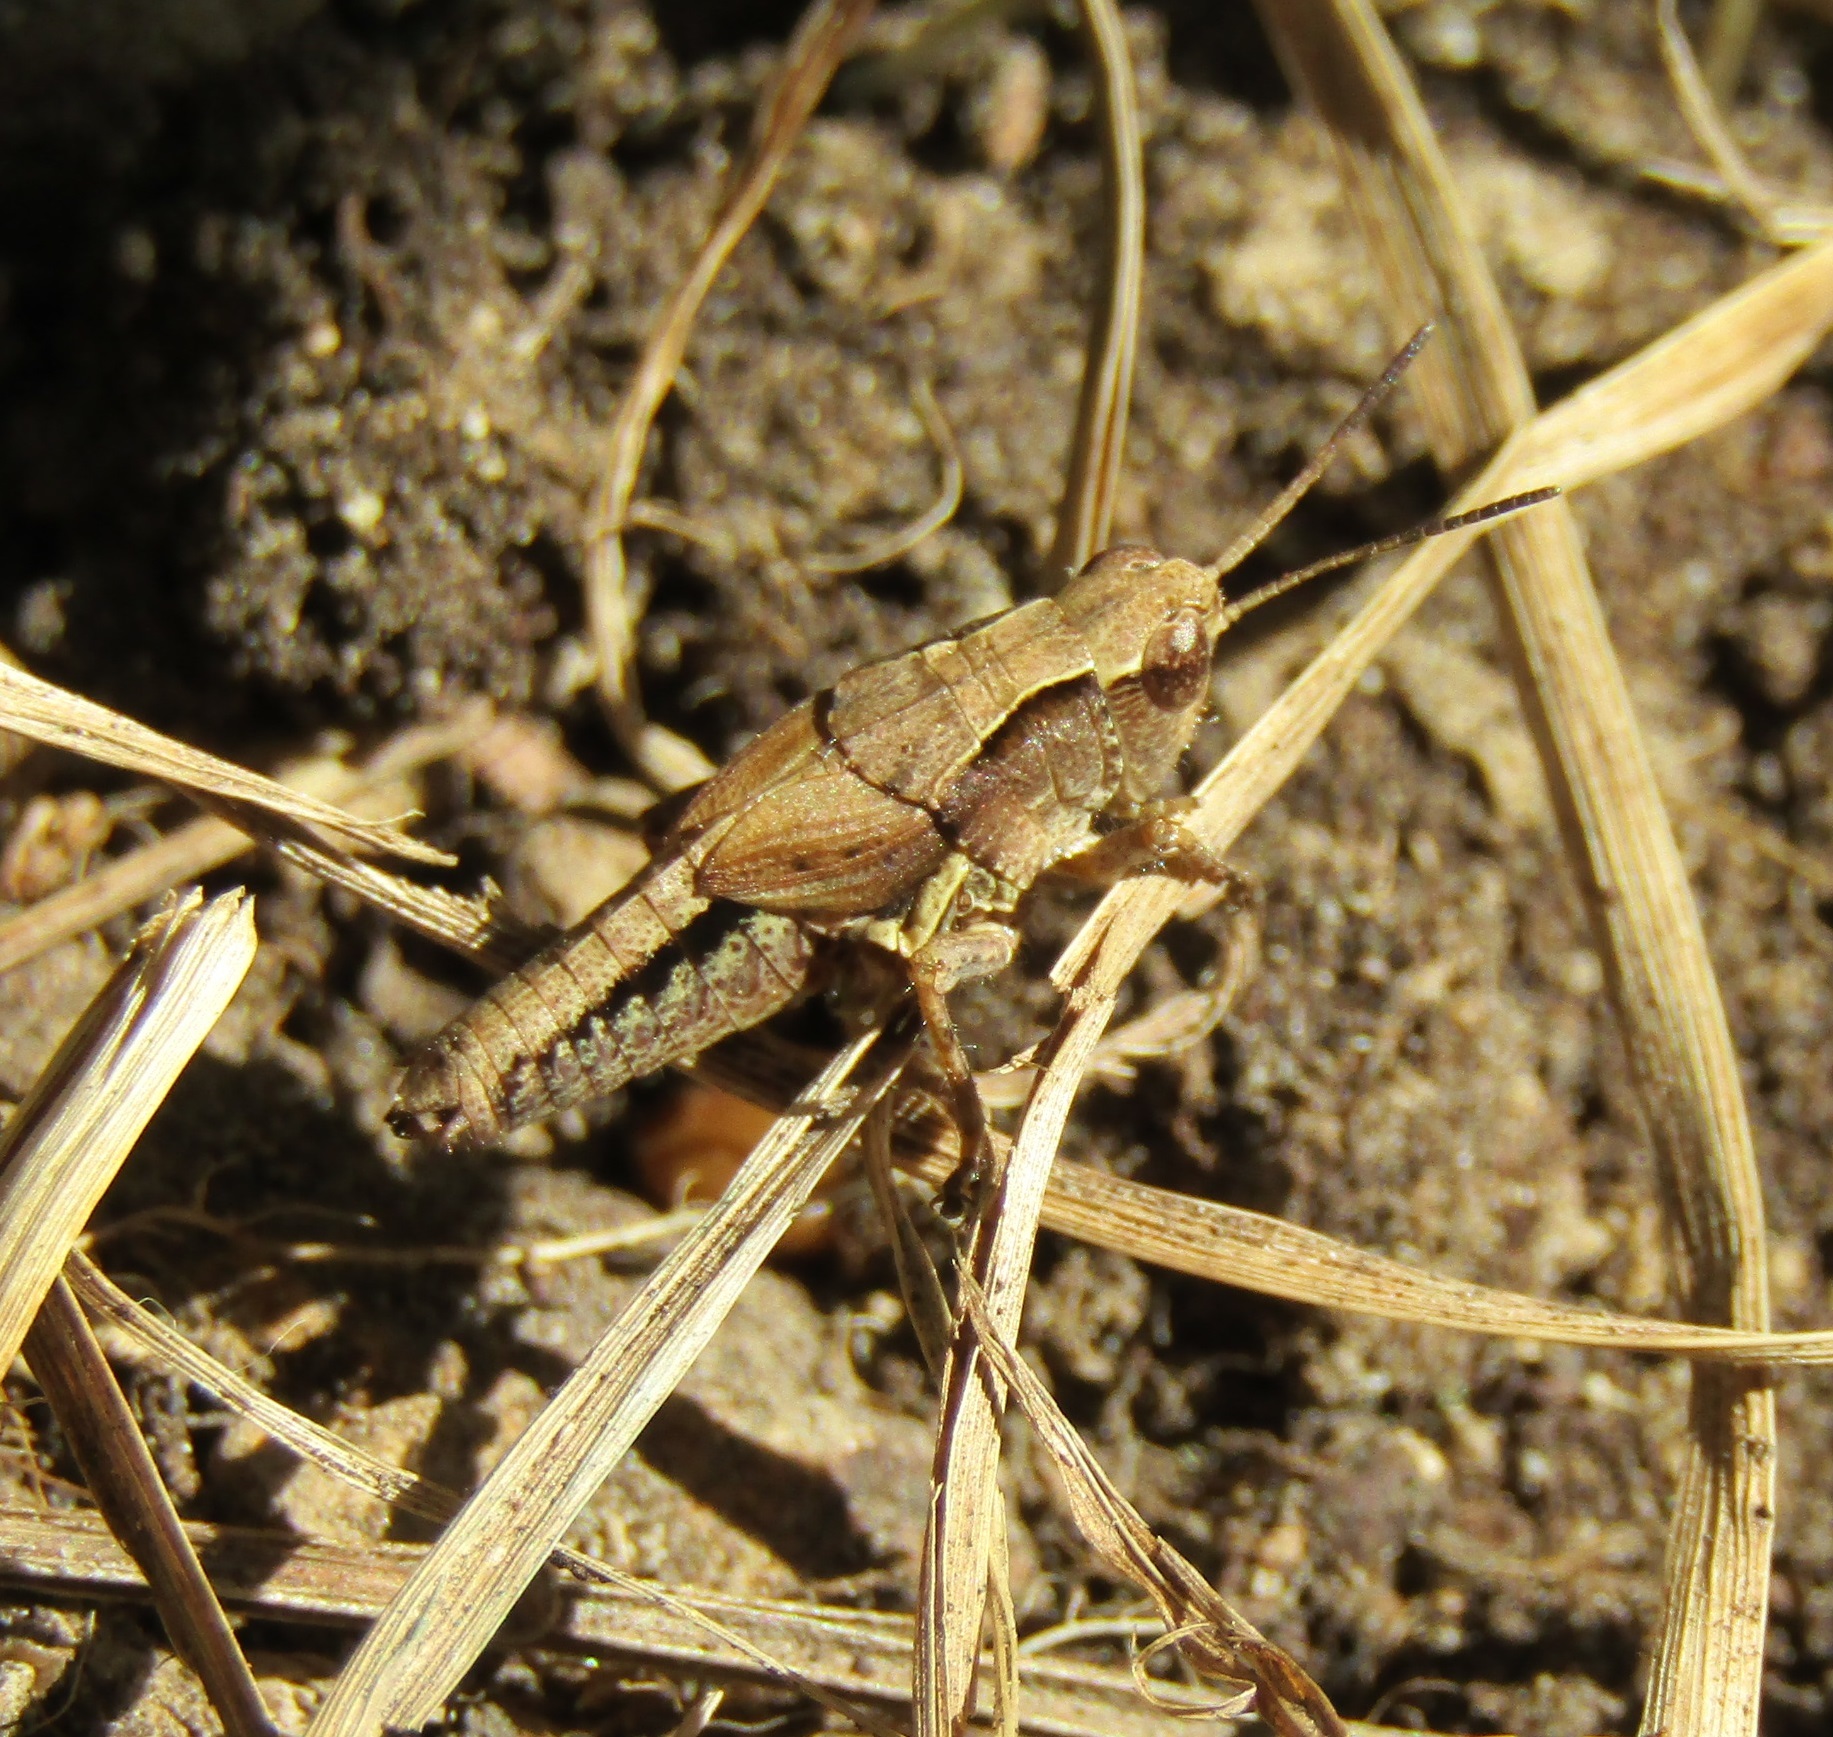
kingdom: Animalia
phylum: Arthropoda
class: Insecta
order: Orthoptera
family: Acrididae
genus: Phaulacridium
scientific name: Phaulacridium marginale
